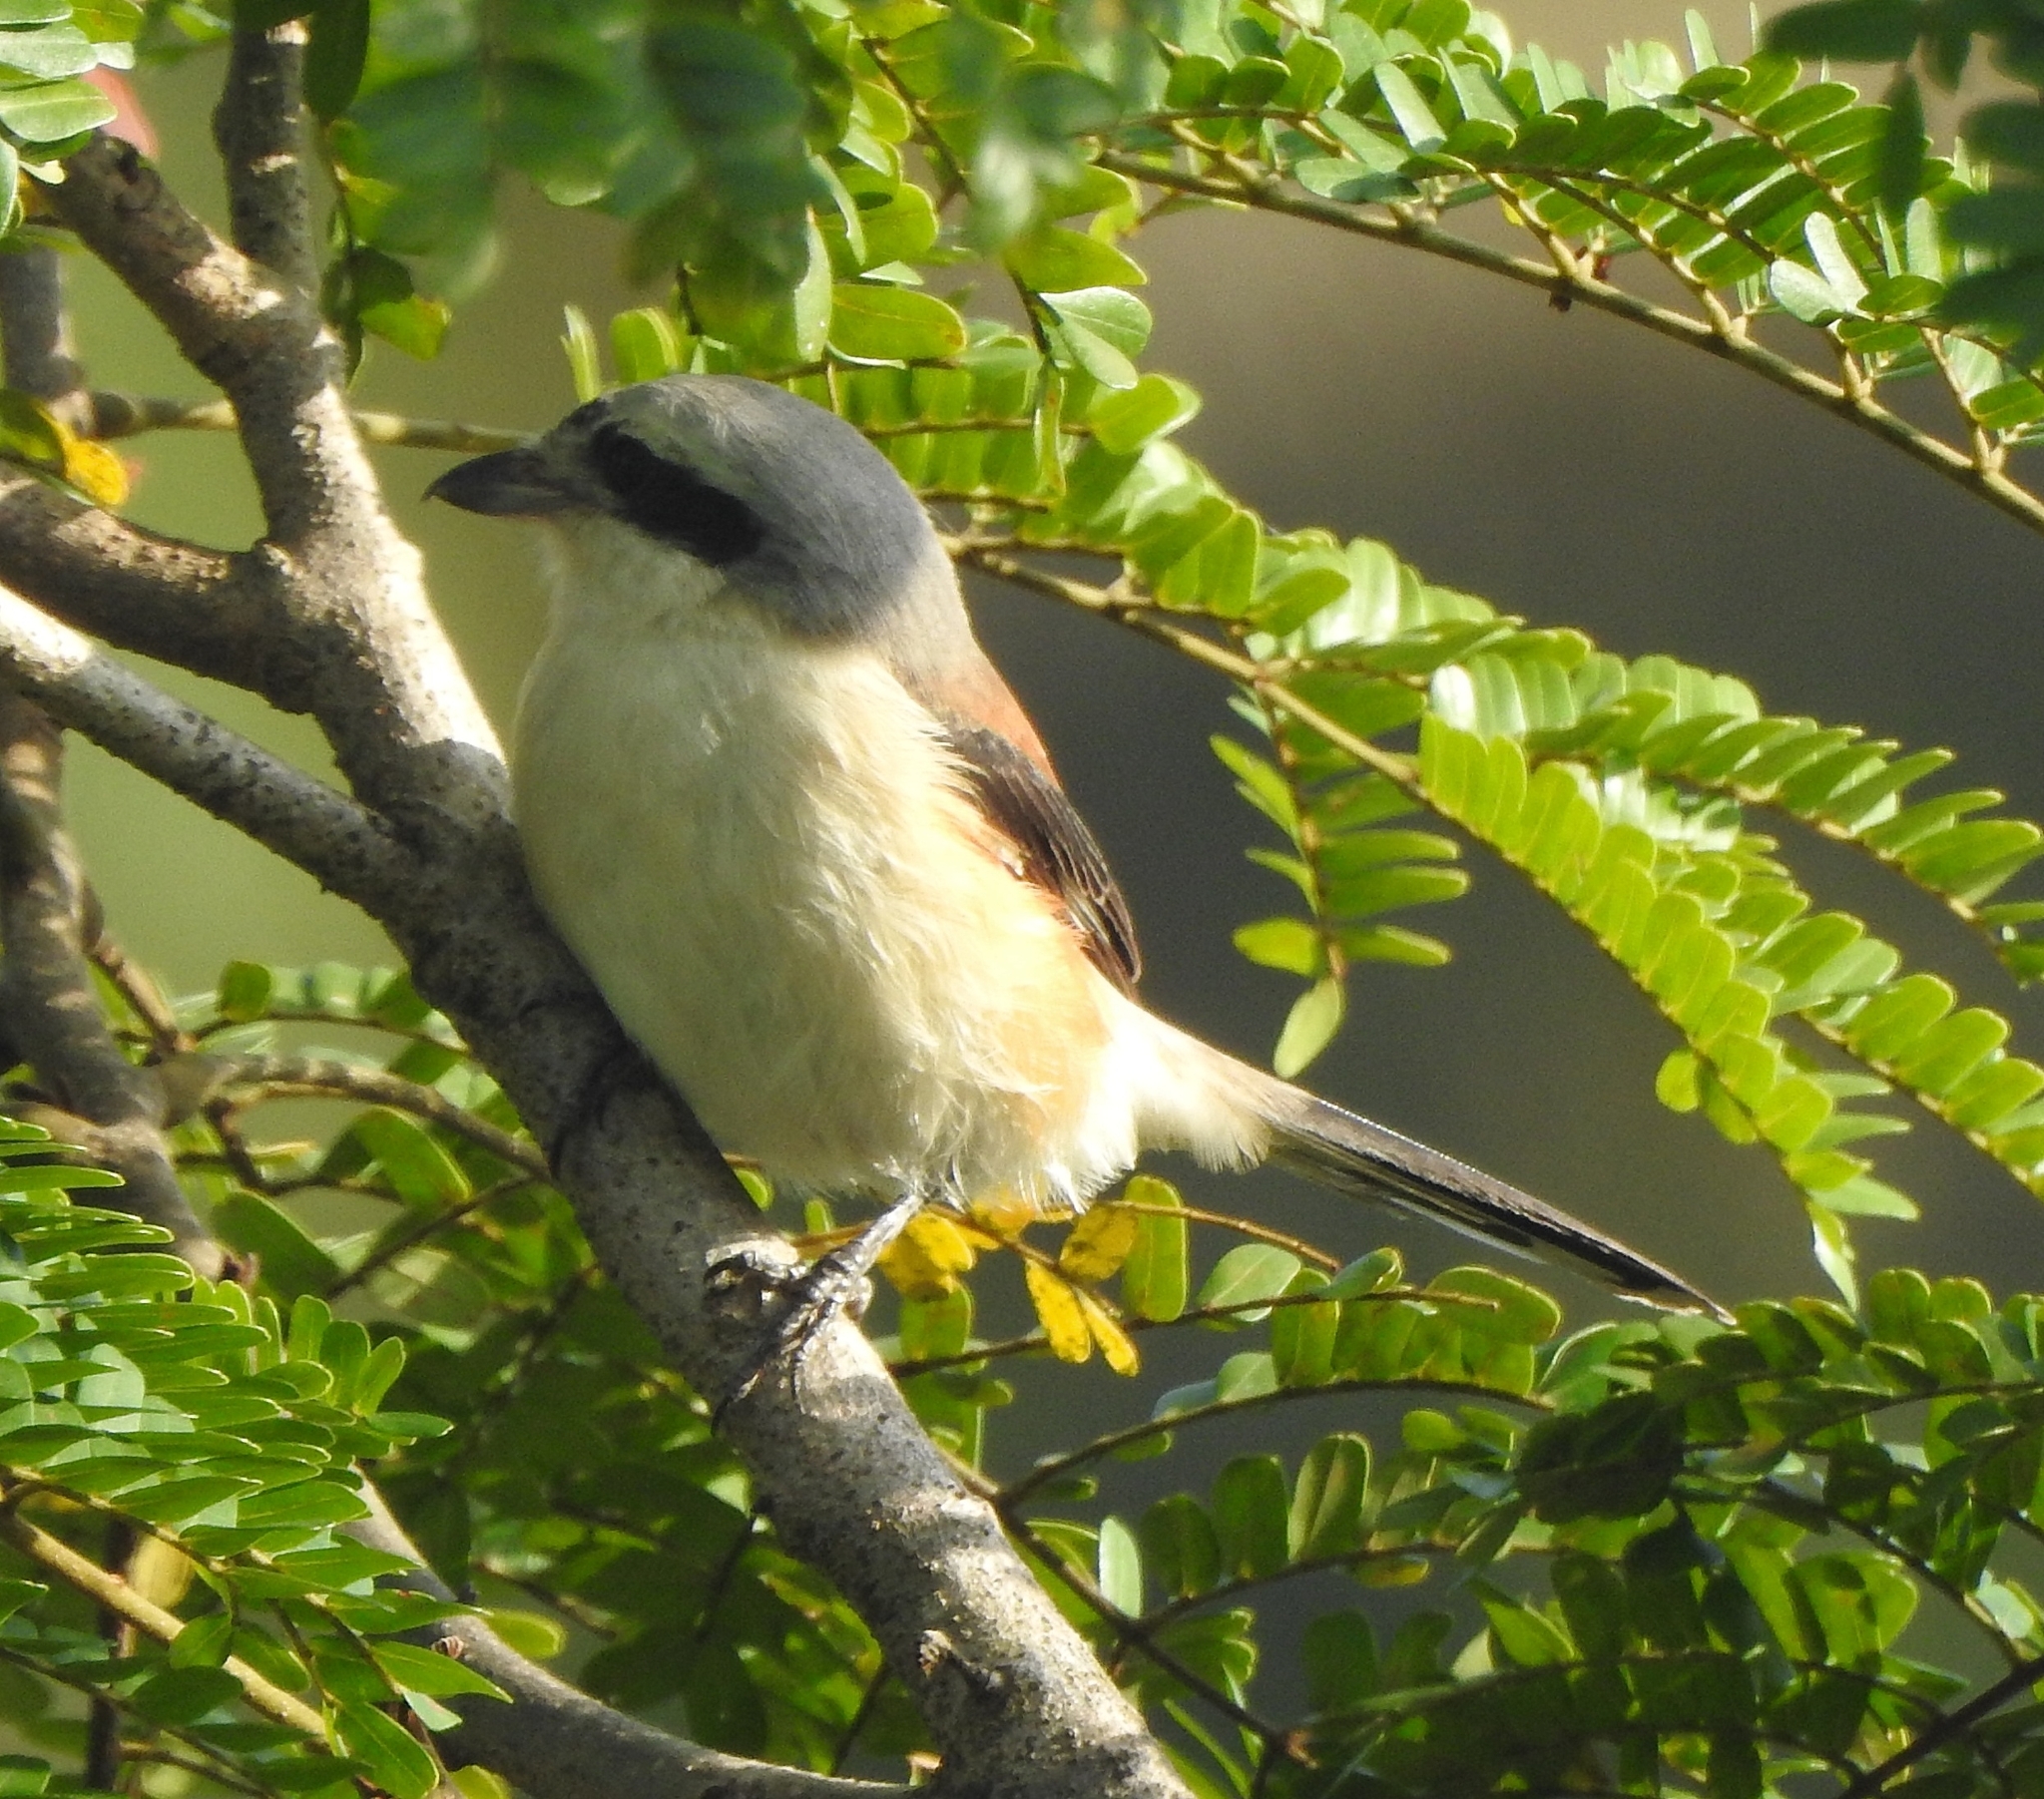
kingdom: Animalia
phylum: Chordata
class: Aves
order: Passeriformes
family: Laniidae
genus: Lanius
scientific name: Lanius schach
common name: Long-tailed shrike
